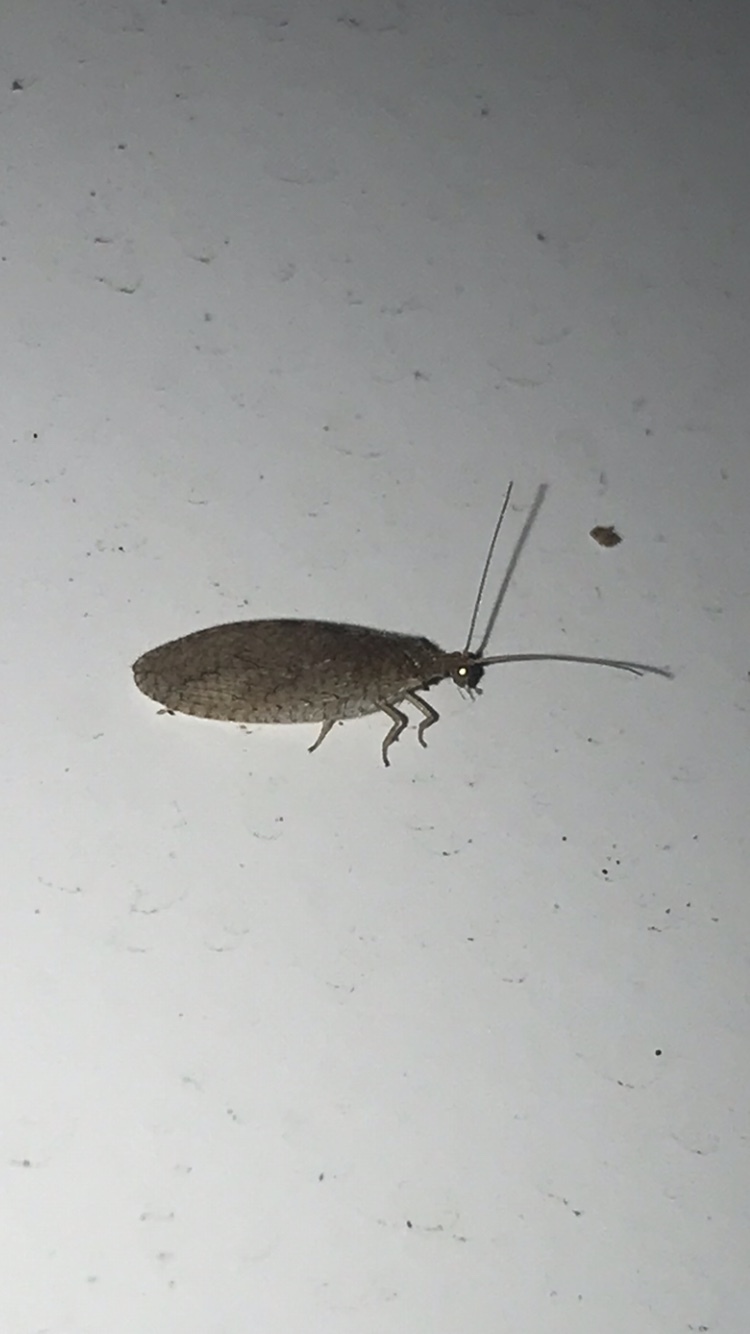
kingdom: Animalia
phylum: Arthropoda
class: Insecta
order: Neuroptera
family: Hemerobiidae
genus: Micromus
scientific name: Micromus posticus
